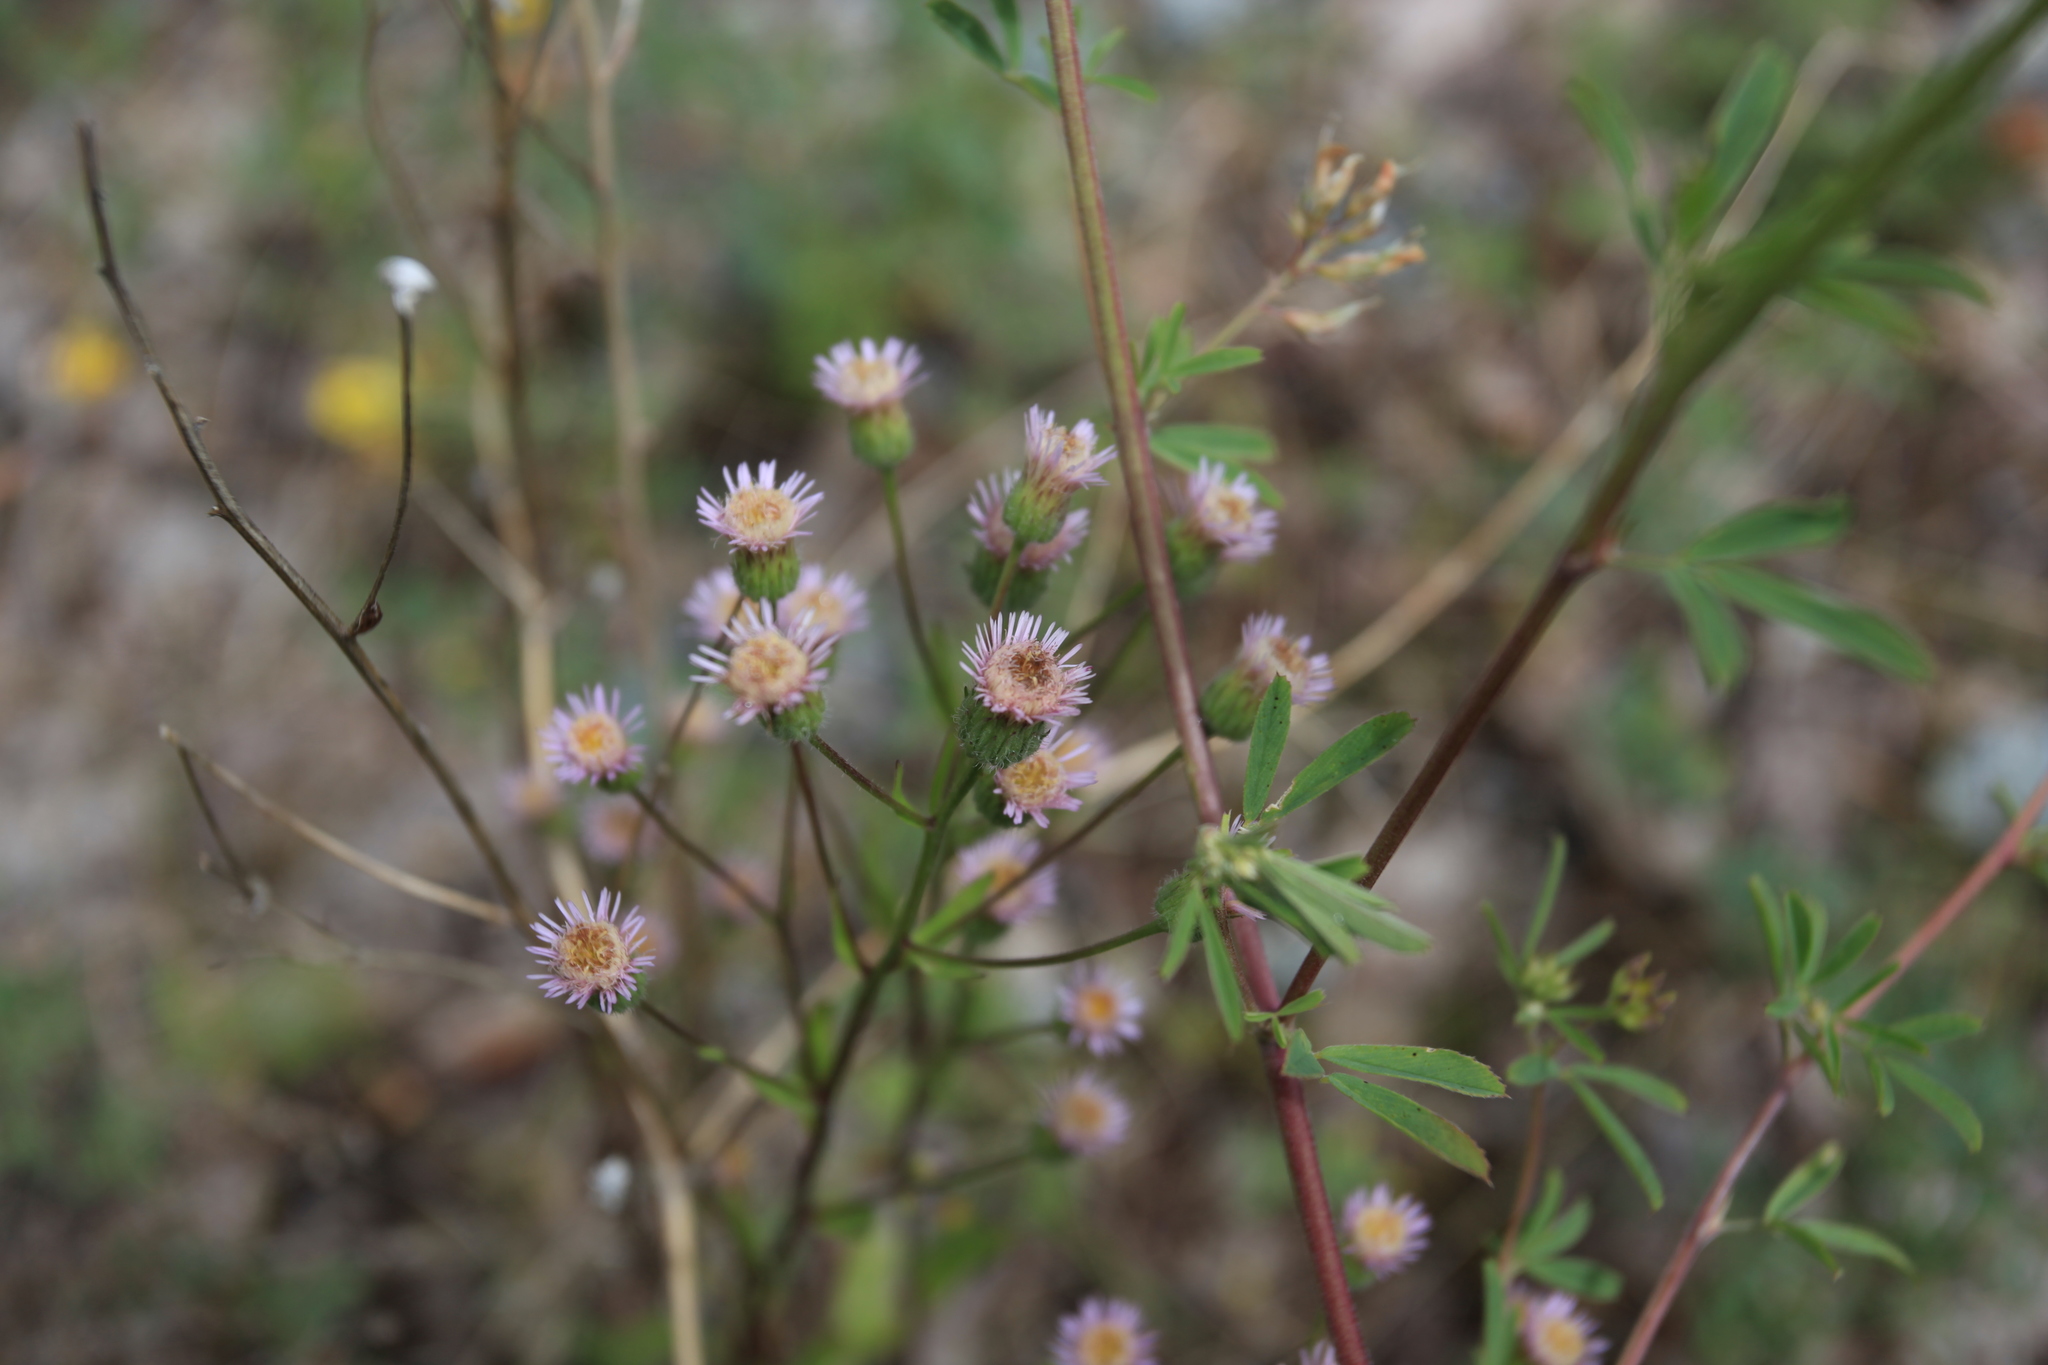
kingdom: Plantae
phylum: Tracheophyta
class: Magnoliopsida
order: Asterales
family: Asteraceae
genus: Erigeron
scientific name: Erigeron acris
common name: Blue fleabane
